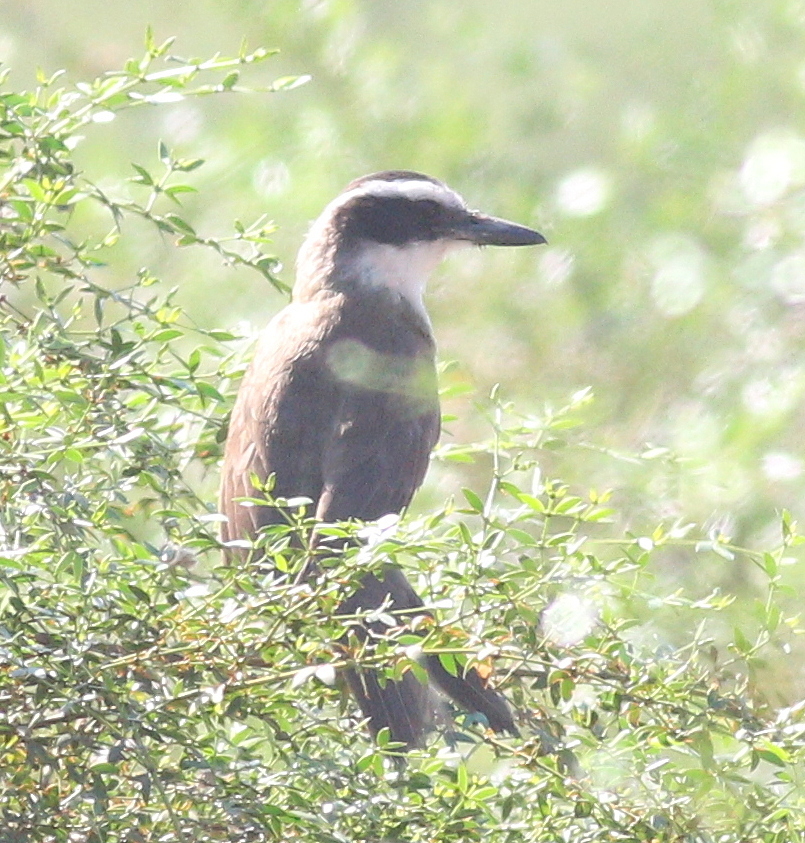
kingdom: Animalia
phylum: Chordata
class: Aves
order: Passeriformes
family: Tyrannidae
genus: Pitangus
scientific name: Pitangus sulphuratus
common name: Great kiskadee
